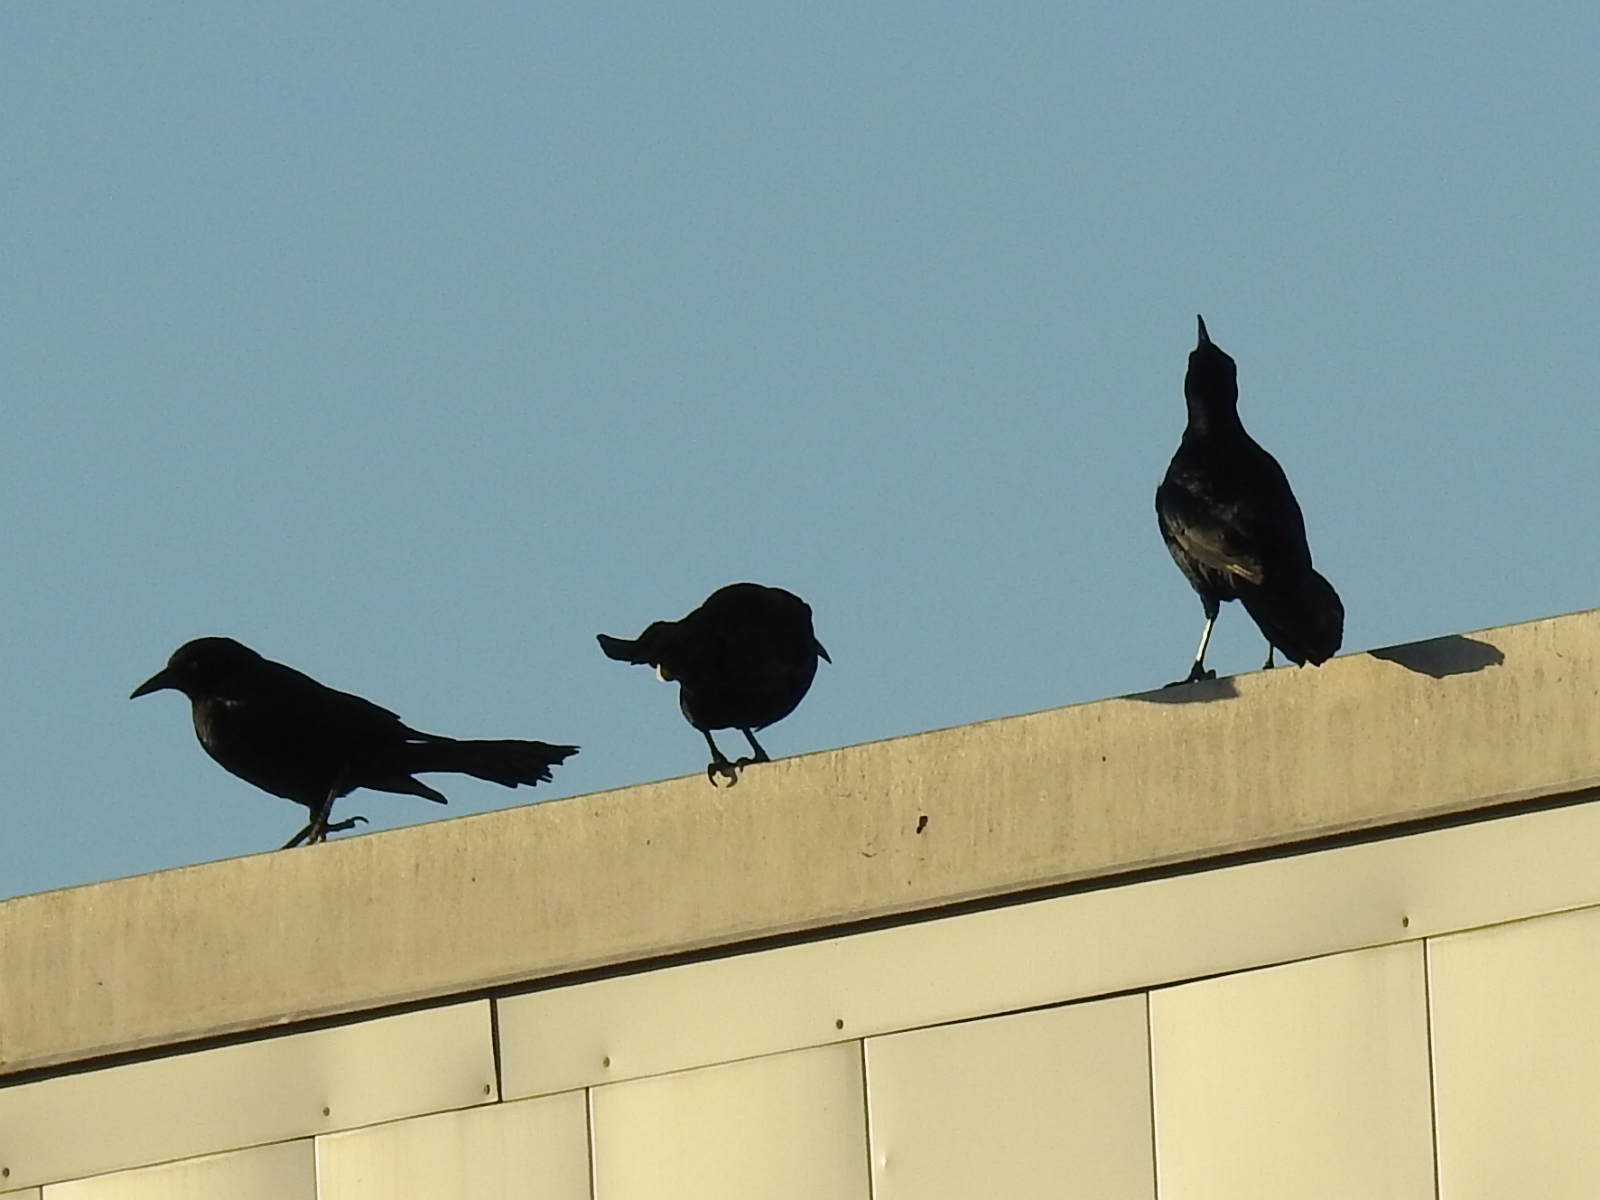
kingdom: Animalia
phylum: Chordata
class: Aves
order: Passeriformes
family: Icteridae
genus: Quiscalus
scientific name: Quiscalus mexicanus
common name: Great-tailed grackle
